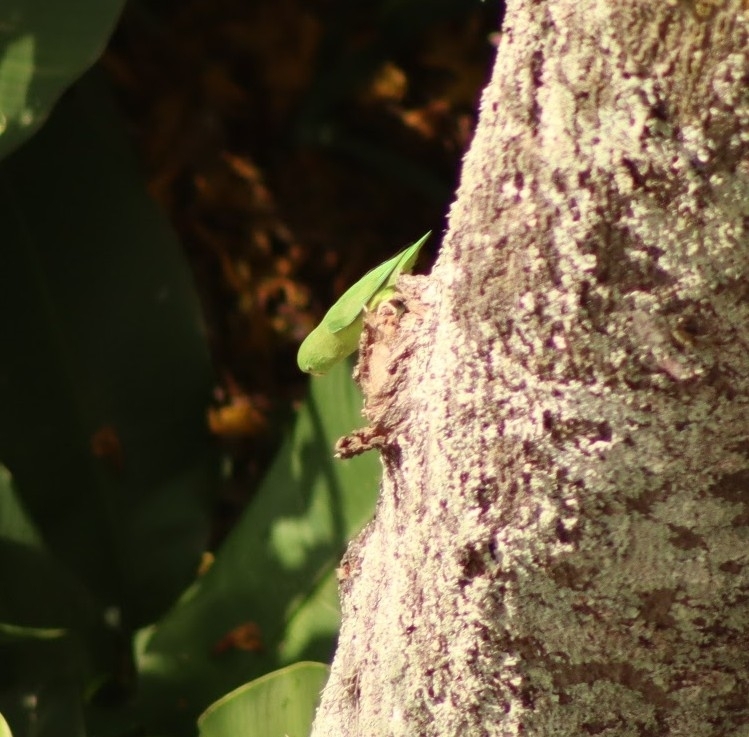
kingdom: Animalia
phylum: Chordata
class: Aves
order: Psittaciformes
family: Psittacidae
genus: Forpus
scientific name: Forpus conspicillatus
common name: Spectacled parrotlet
